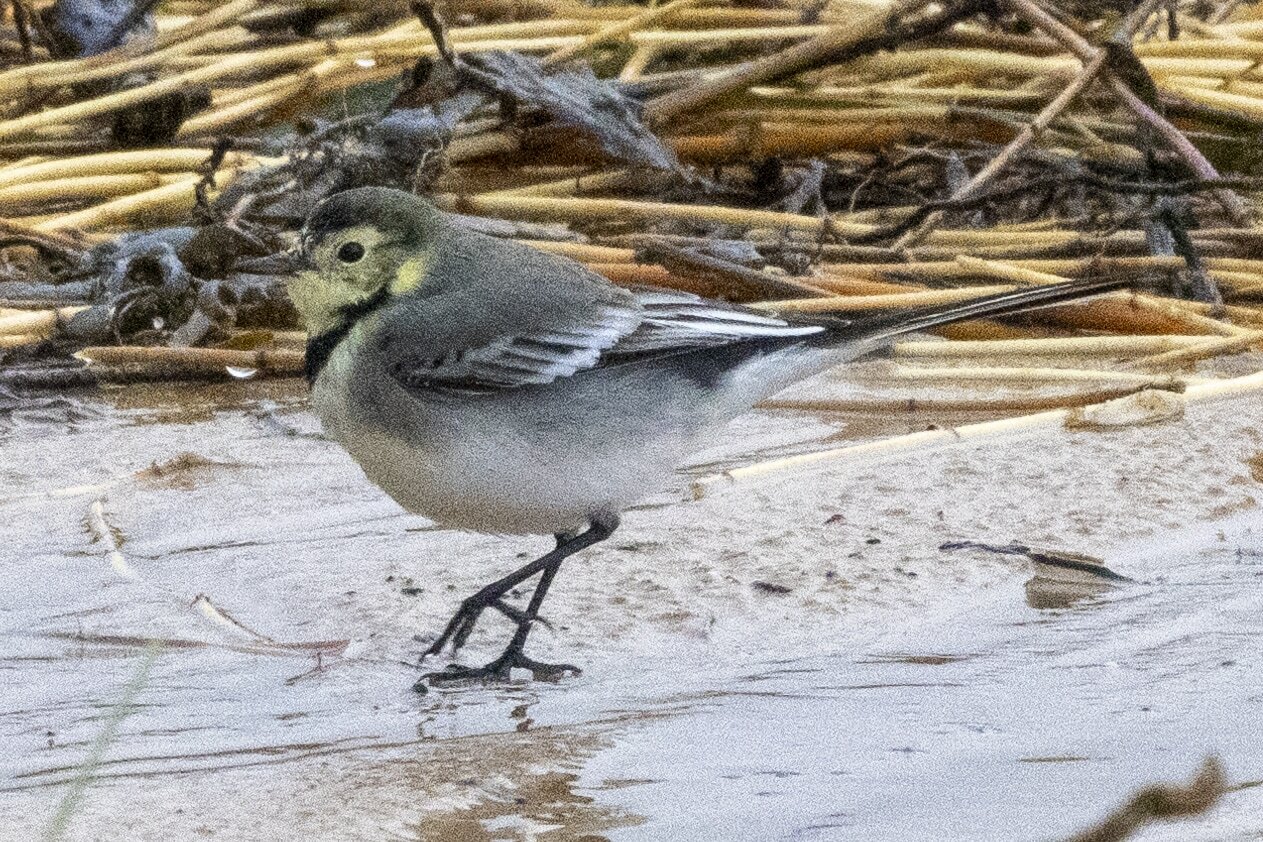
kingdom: Animalia
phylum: Chordata
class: Aves
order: Passeriformes
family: Motacillidae
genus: Motacilla
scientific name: Motacilla alba
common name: White wagtail
